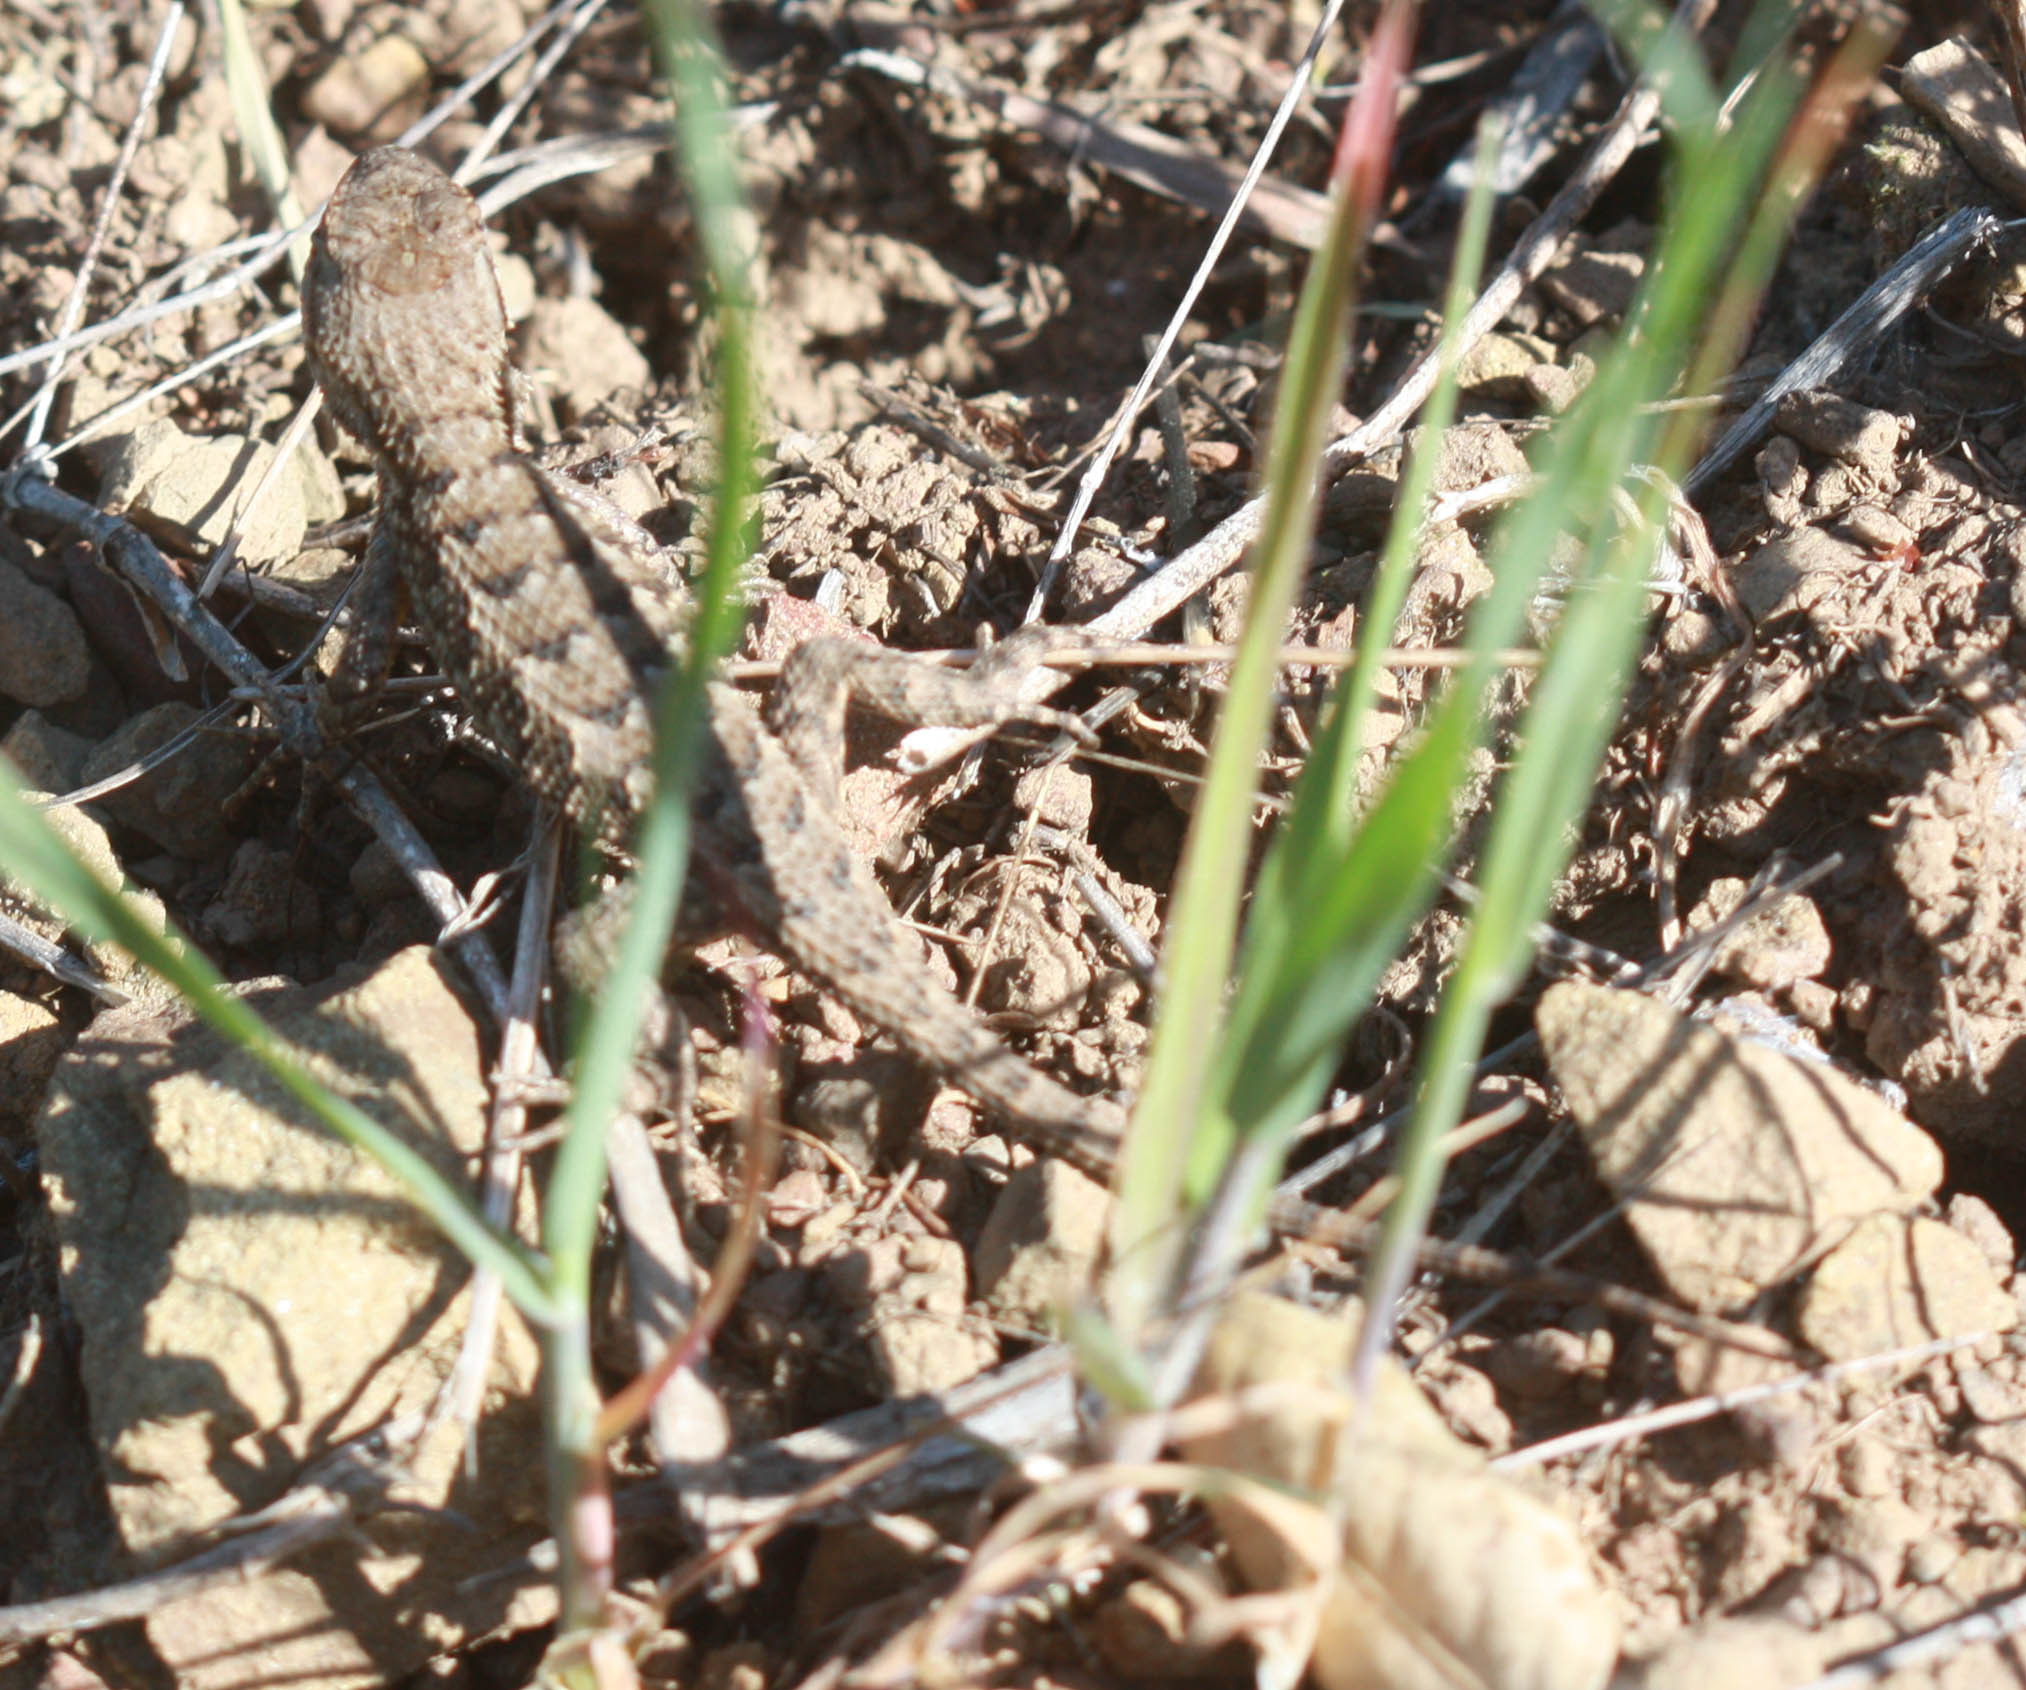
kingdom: Animalia
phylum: Chordata
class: Squamata
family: Phrynosomatidae
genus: Sceloporus
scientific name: Sceloporus occidentalis
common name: Western fence lizard
